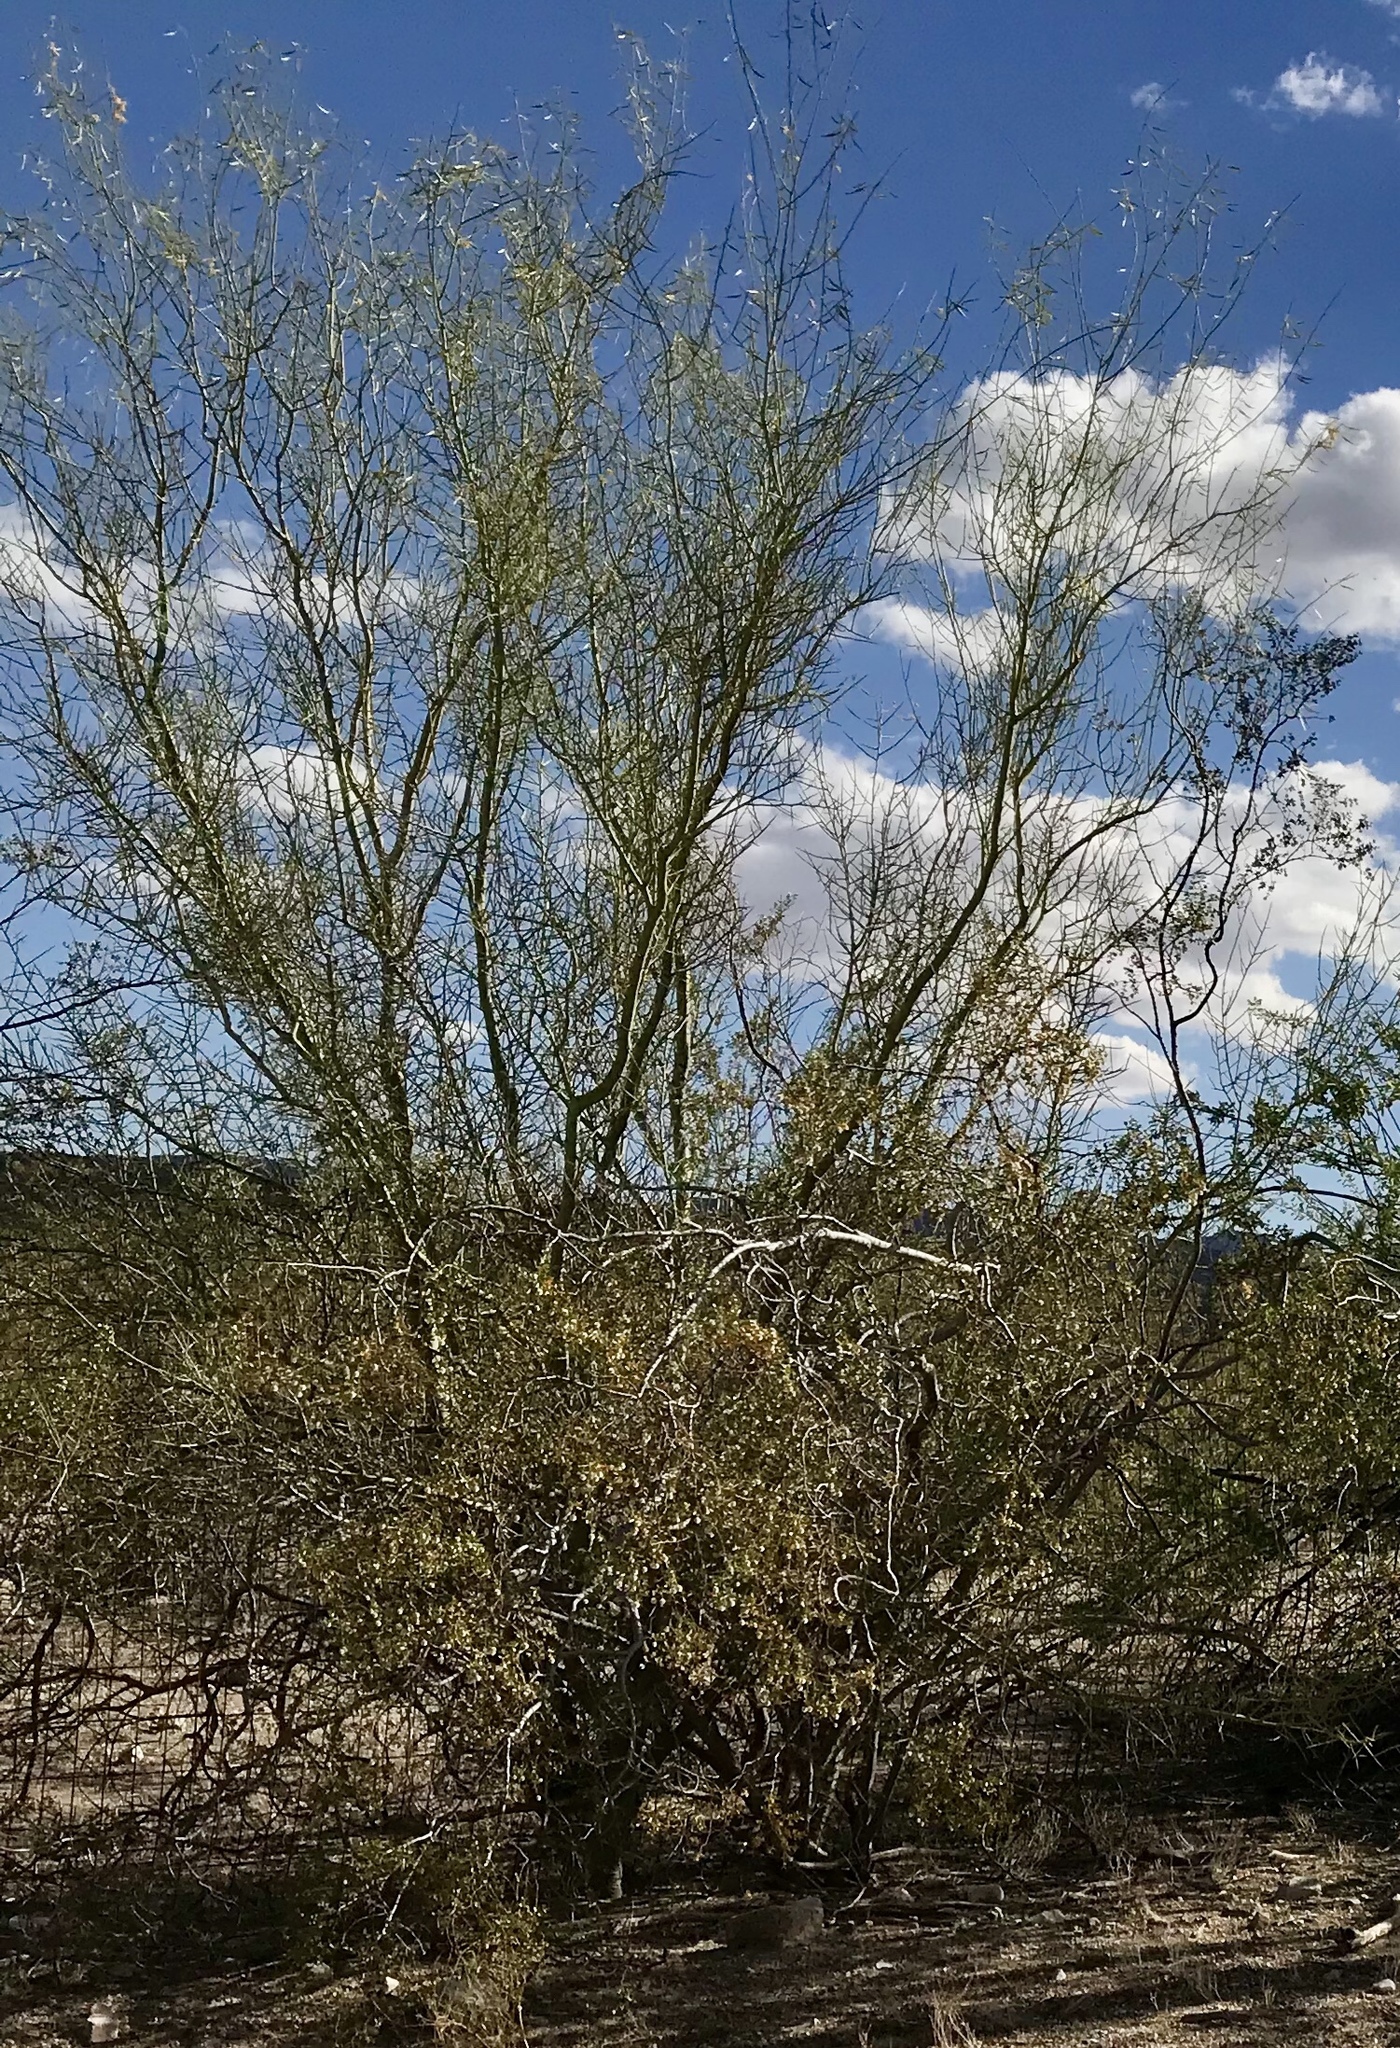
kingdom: Plantae
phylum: Tracheophyta
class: Magnoliopsida
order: Fabales
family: Fabaceae
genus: Parkinsonia
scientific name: Parkinsonia microphylla
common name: Yellow paloverde
